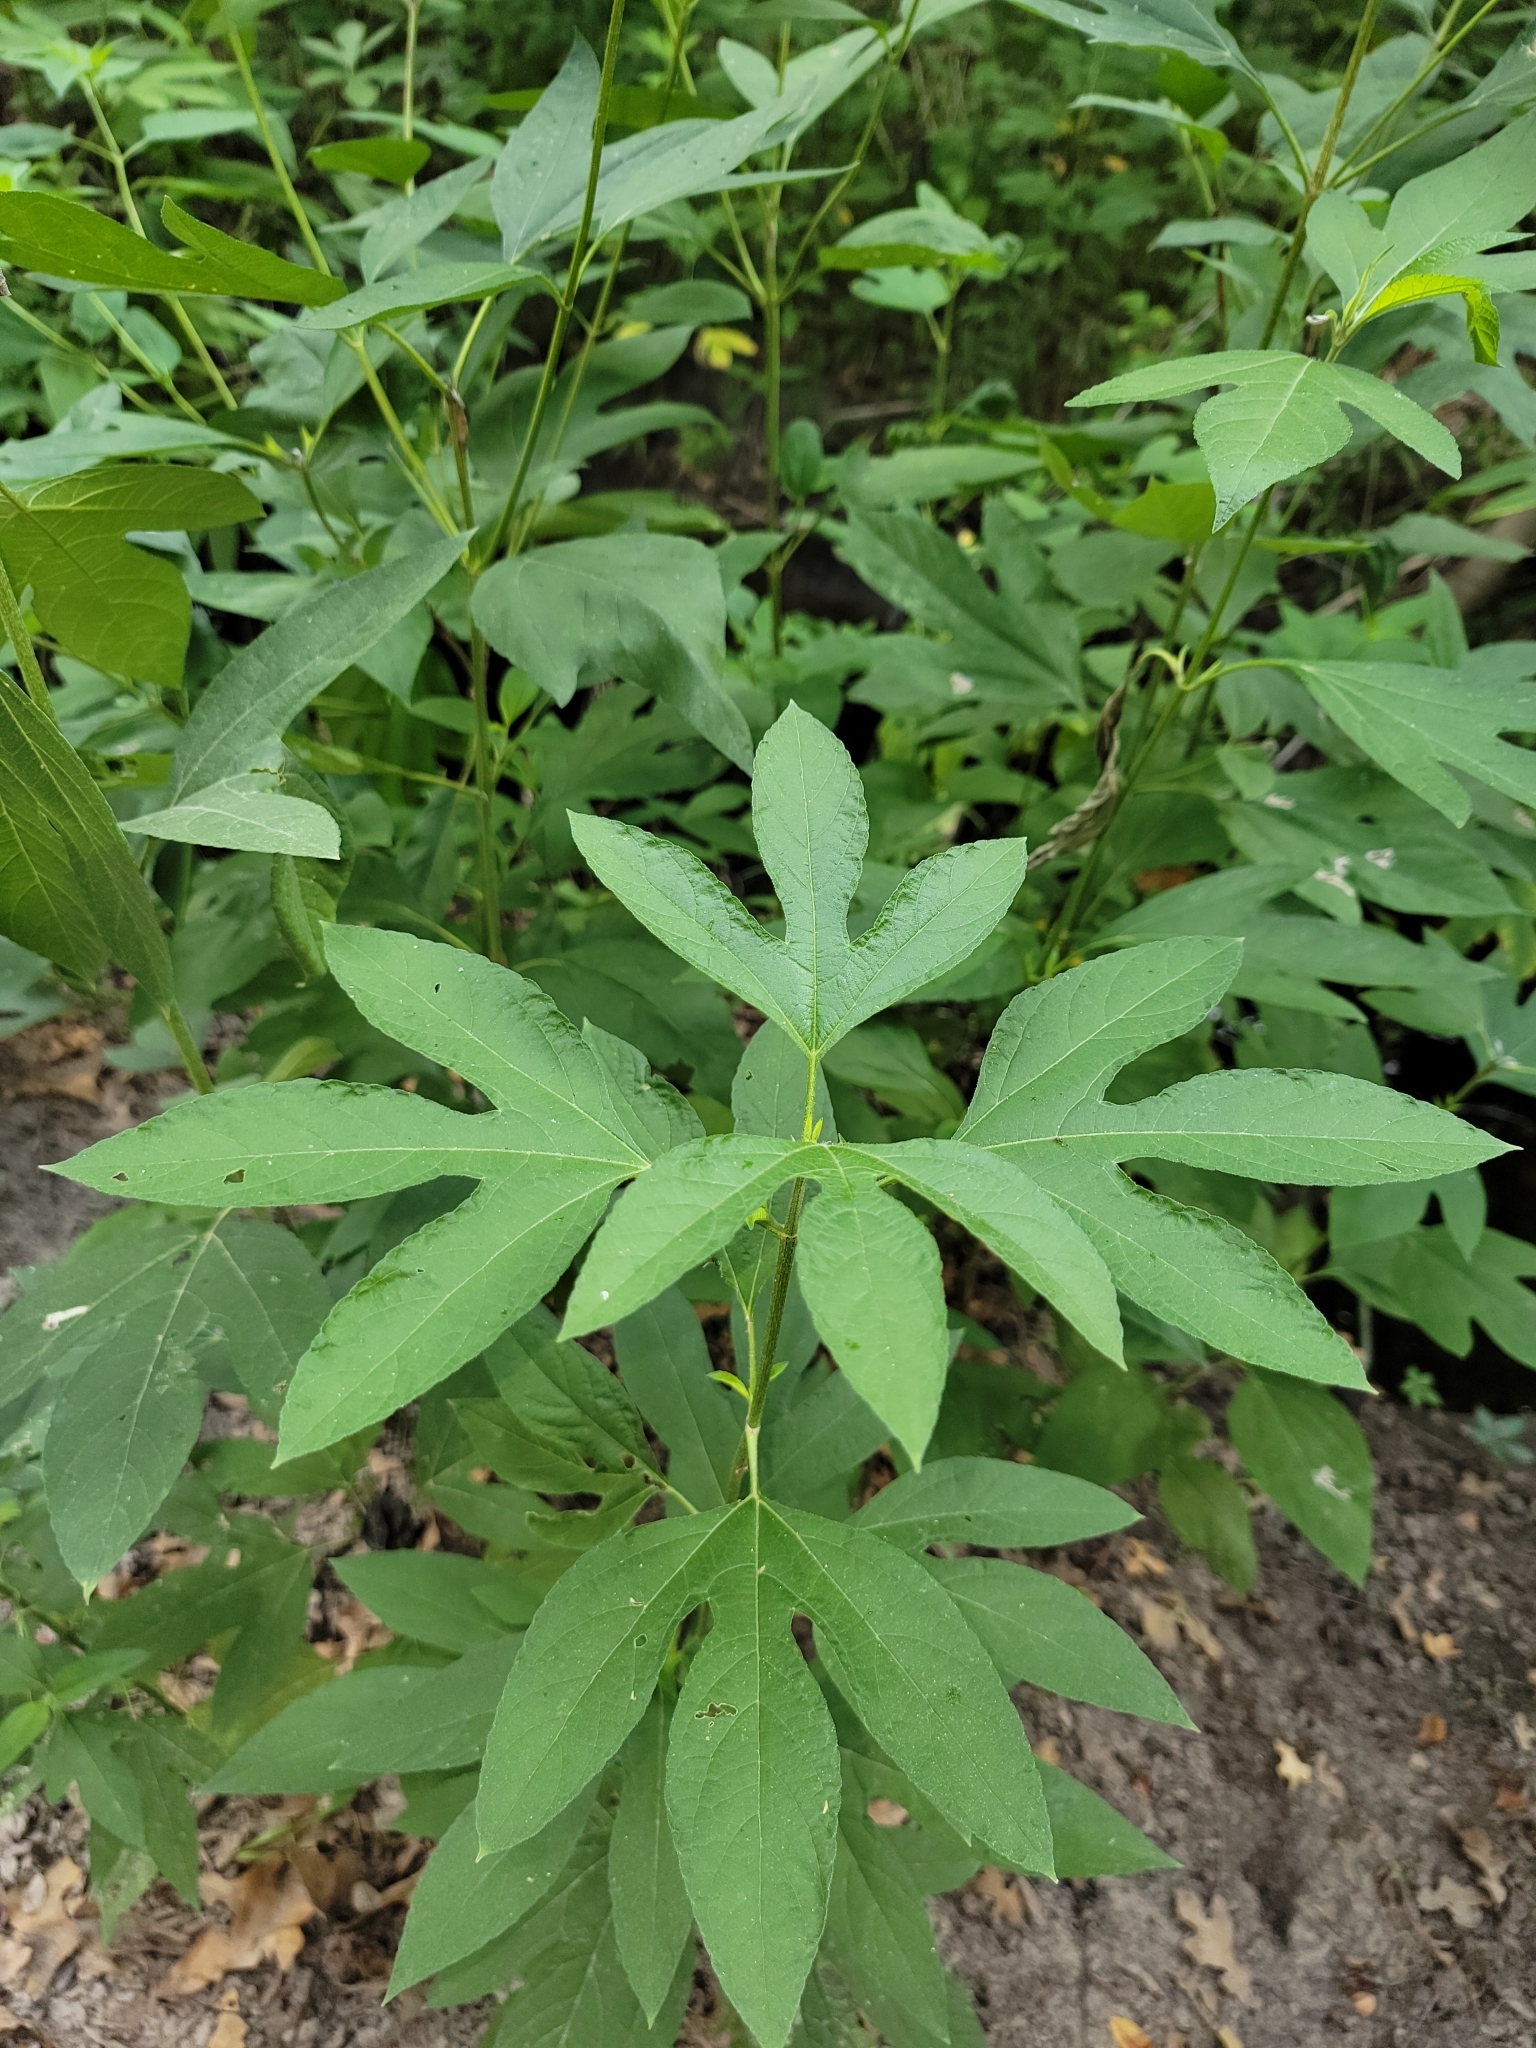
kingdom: Plantae
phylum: Tracheophyta
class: Magnoliopsida
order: Asterales
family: Asteraceae
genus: Ambrosia
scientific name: Ambrosia trifida
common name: Giant ragweed
